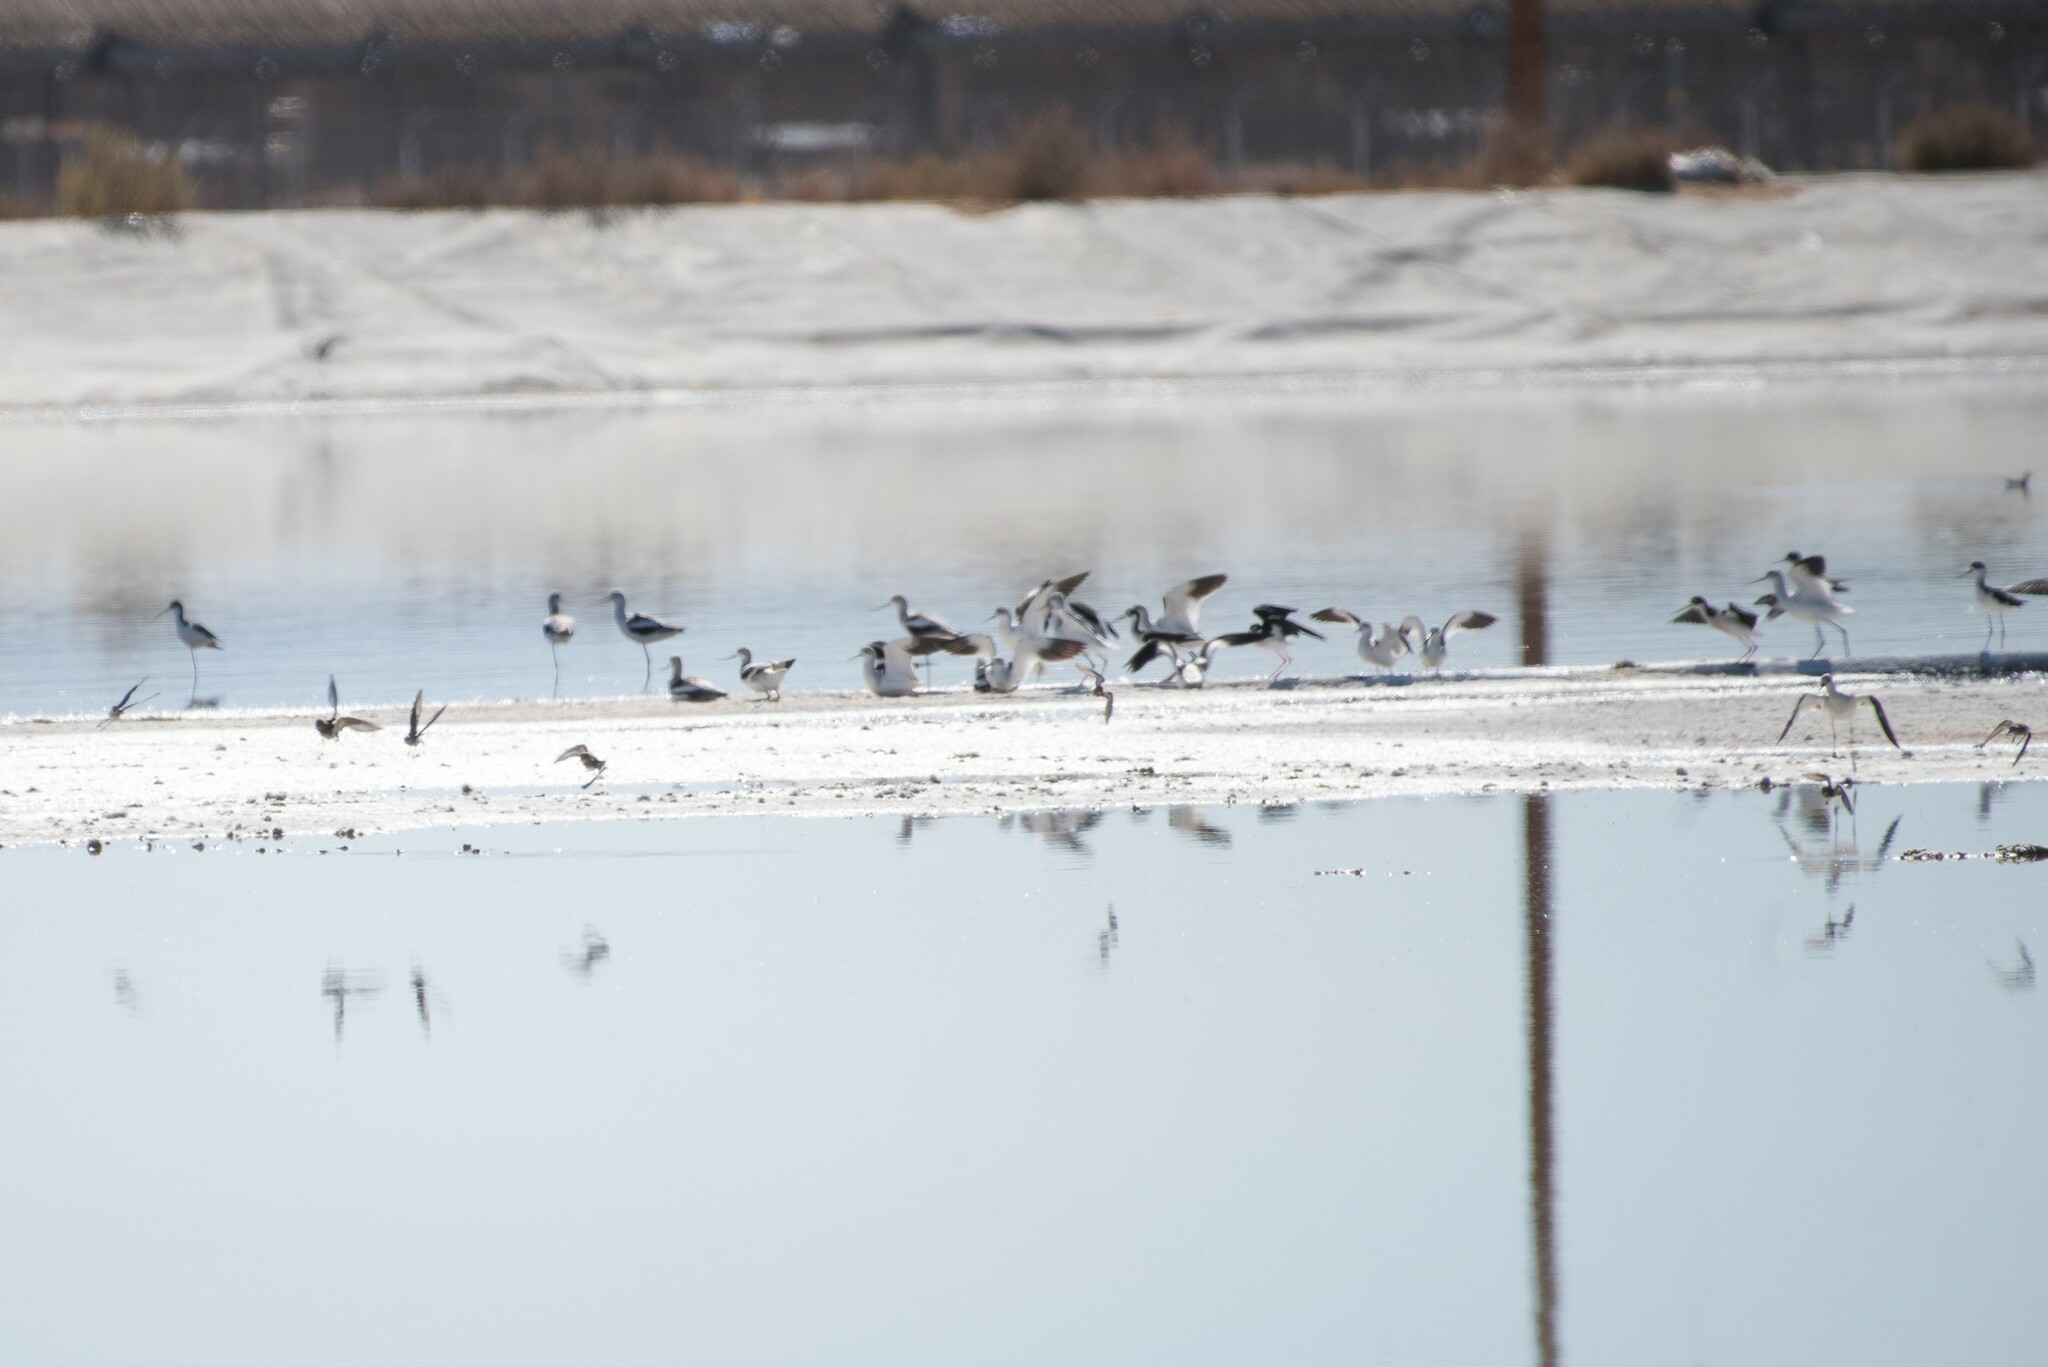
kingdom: Animalia
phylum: Chordata
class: Aves
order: Charadriiformes
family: Recurvirostridae
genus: Recurvirostra
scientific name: Recurvirostra americana
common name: American avocet
